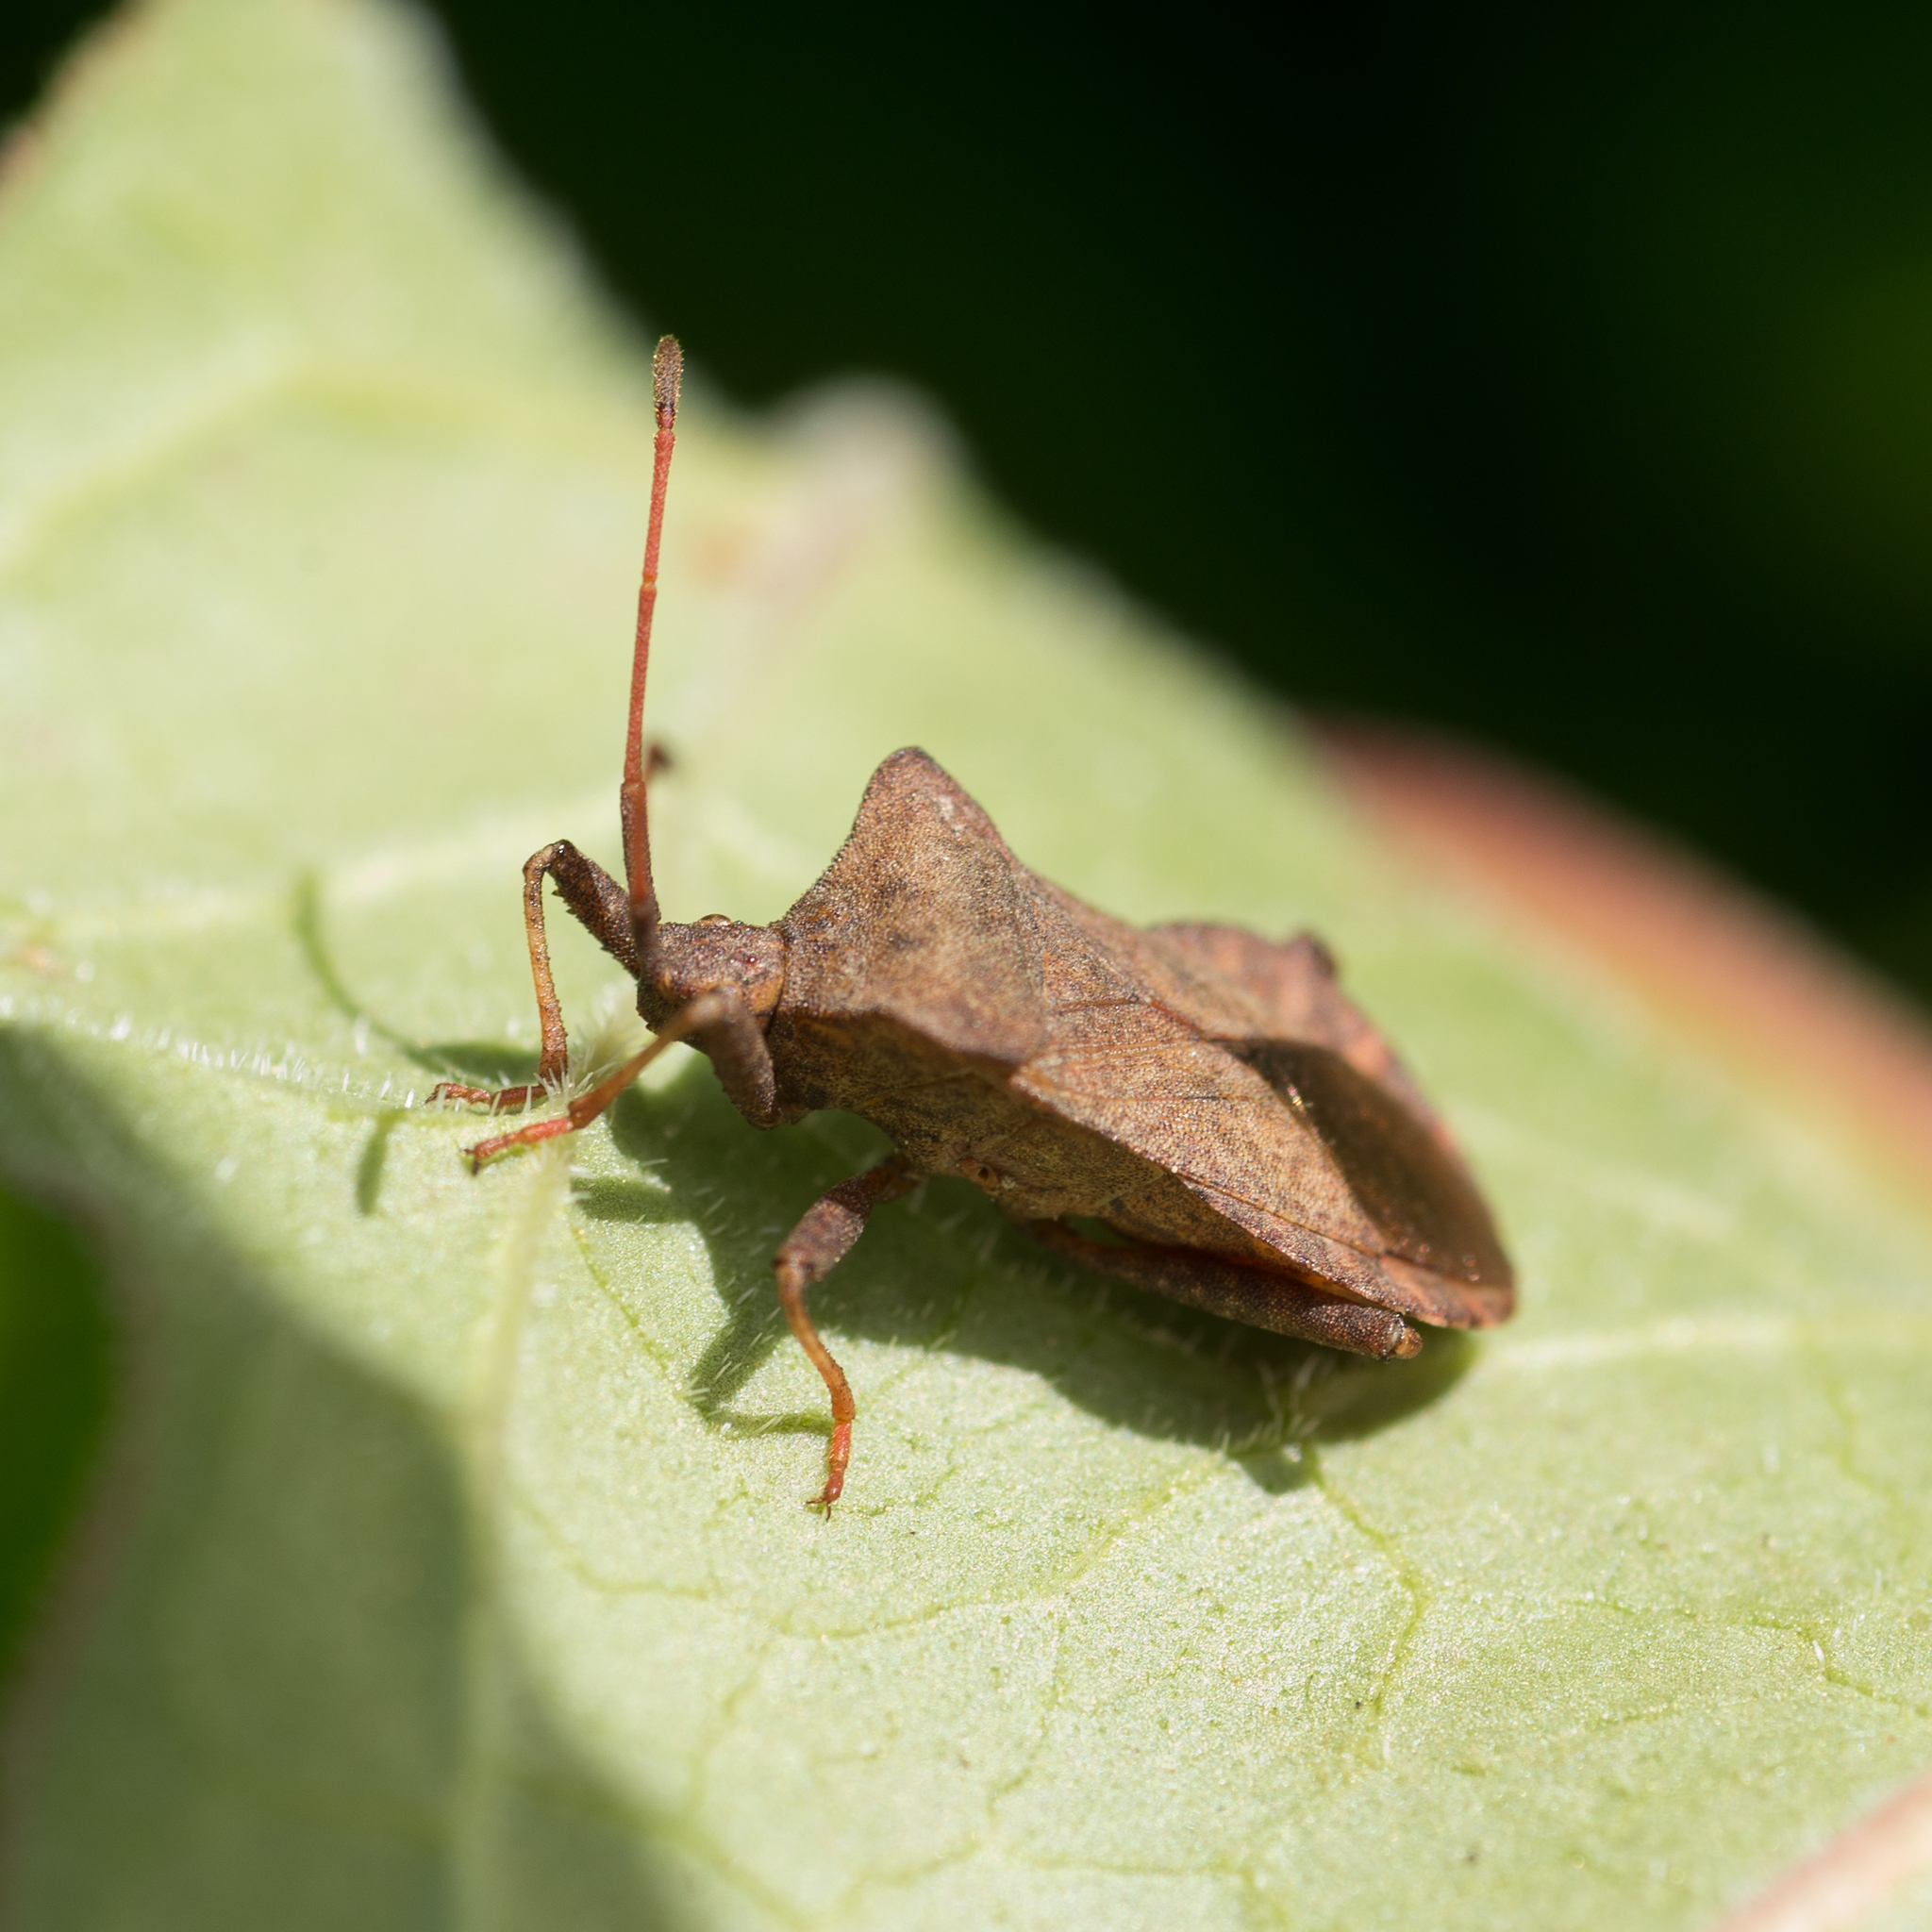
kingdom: Animalia
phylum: Arthropoda
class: Insecta
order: Hemiptera
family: Coreidae
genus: Coreus
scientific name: Coreus marginatus
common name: Dock bug
